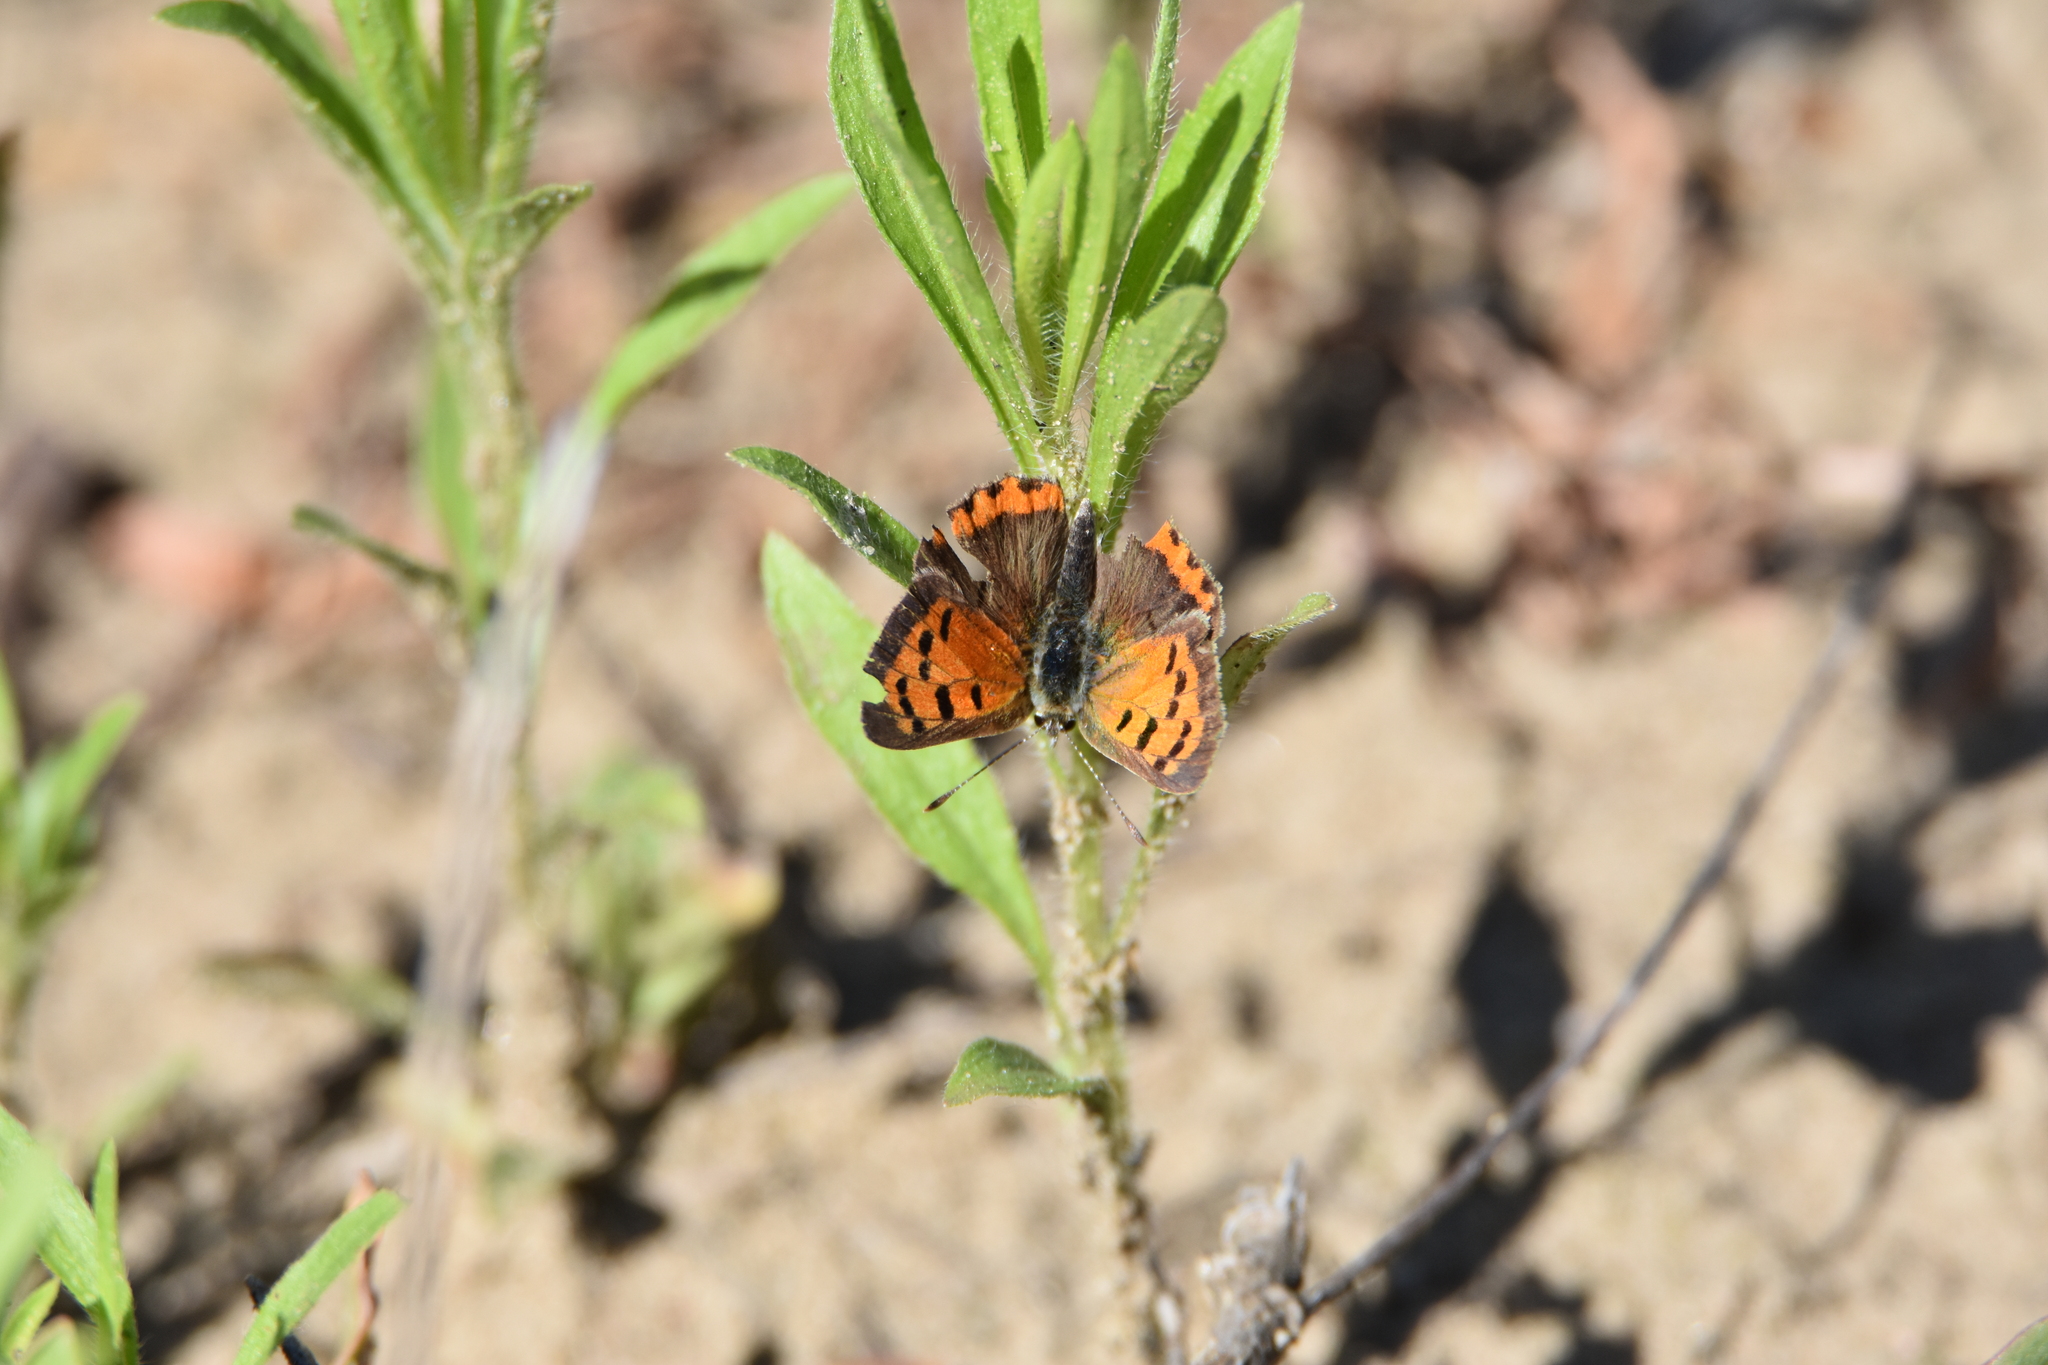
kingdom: Animalia
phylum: Arthropoda
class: Insecta
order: Lepidoptera
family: Lycaenidae
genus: Lycaena
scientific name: Lycaena hypophlaeas
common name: American copper
